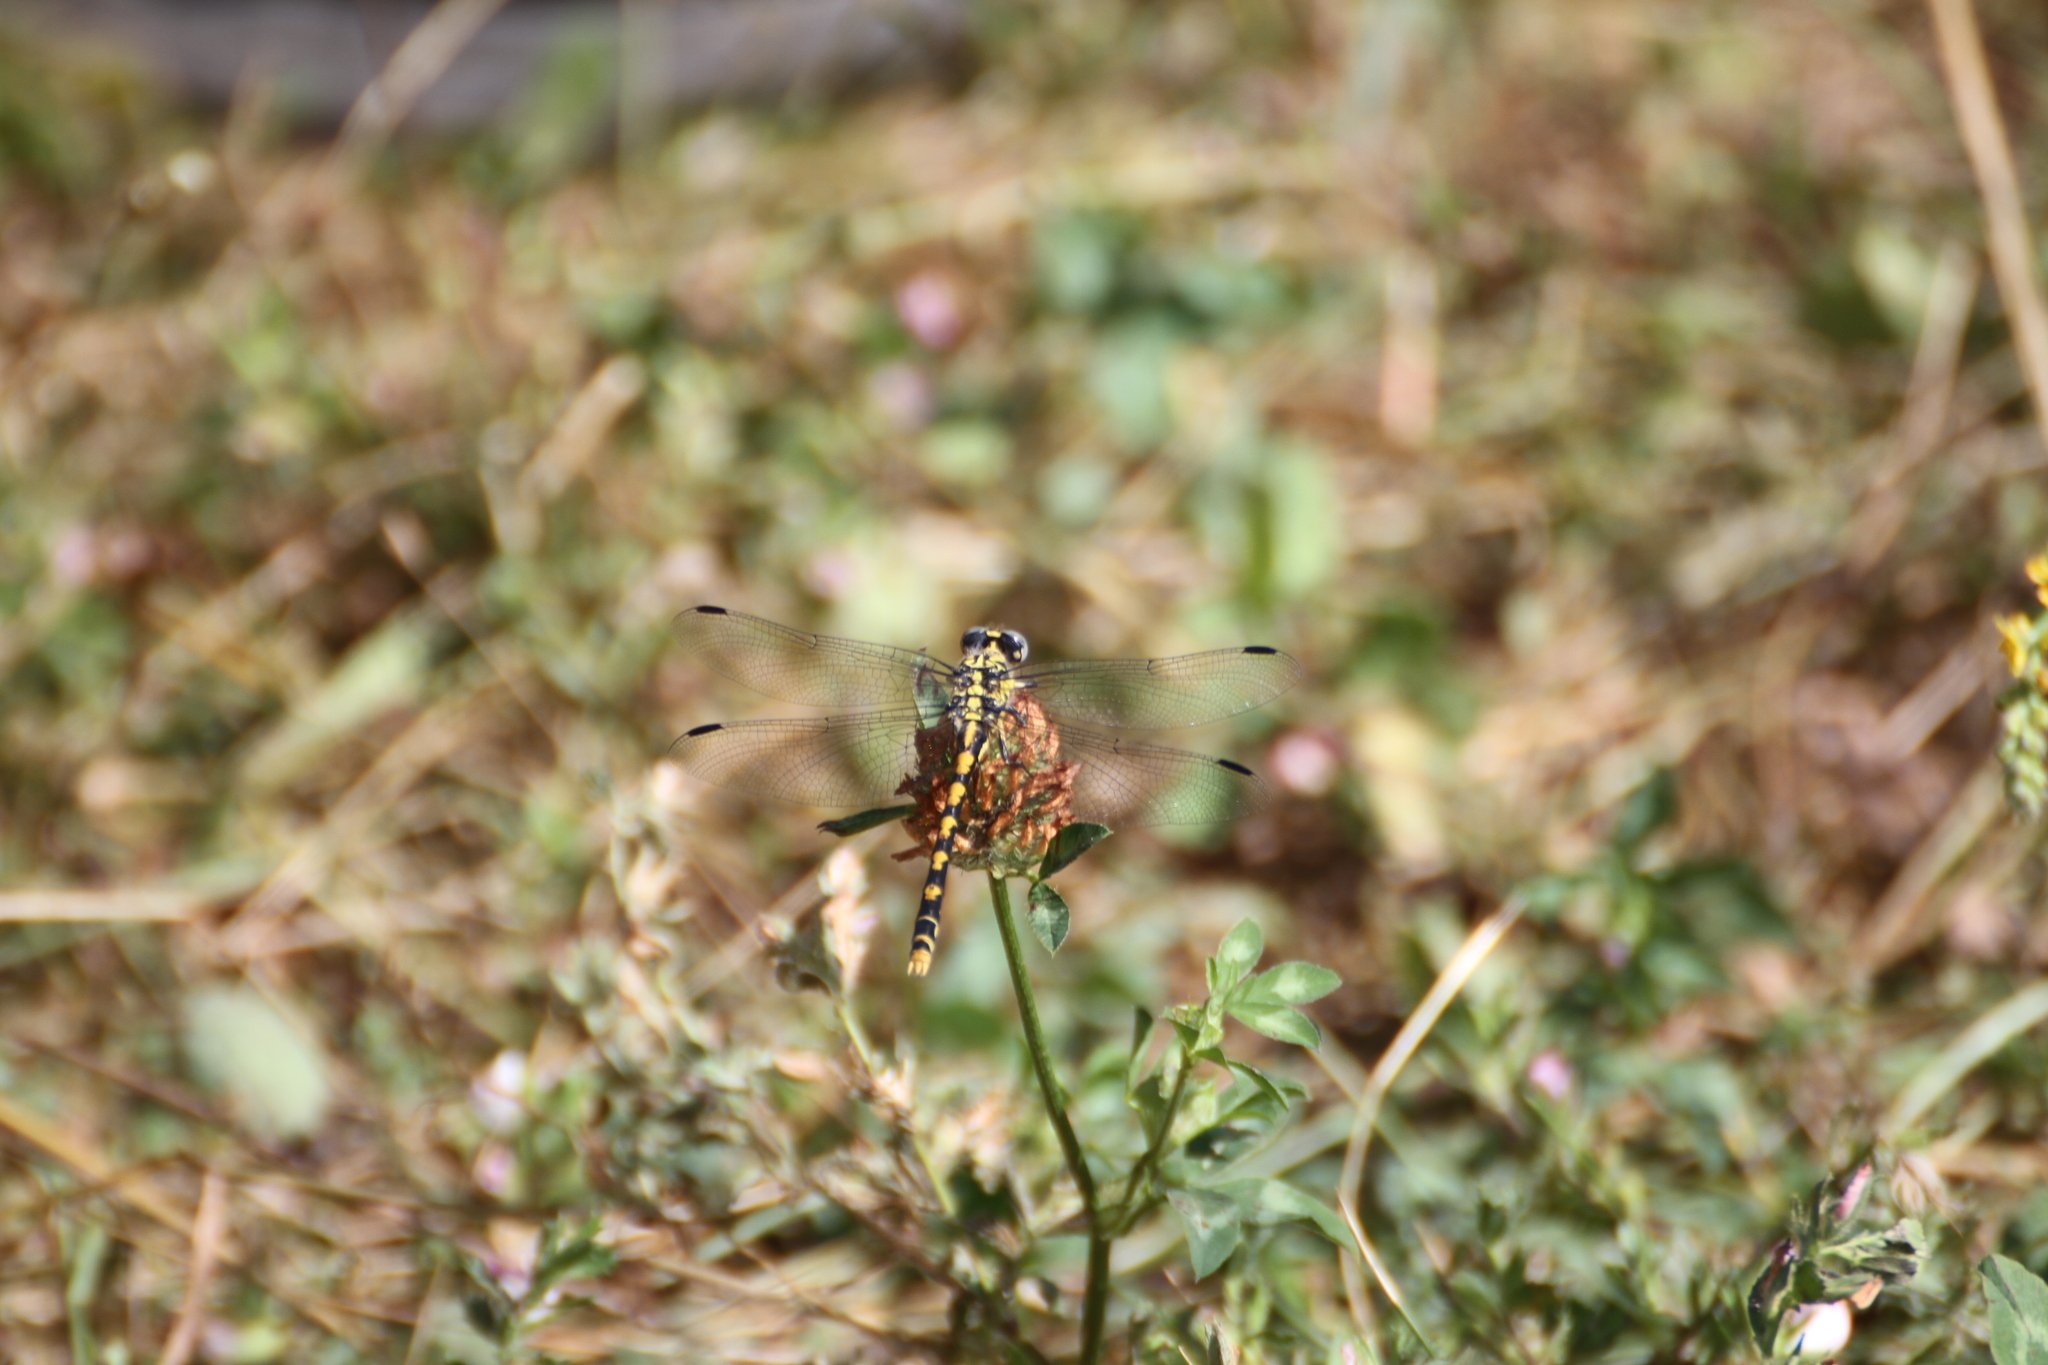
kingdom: Animalia
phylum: Arthropoda
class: Insecta
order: Odonata
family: Gomphidae
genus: Onychogomphus
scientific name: Onychogomphus uncatus
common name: Large pincertail
